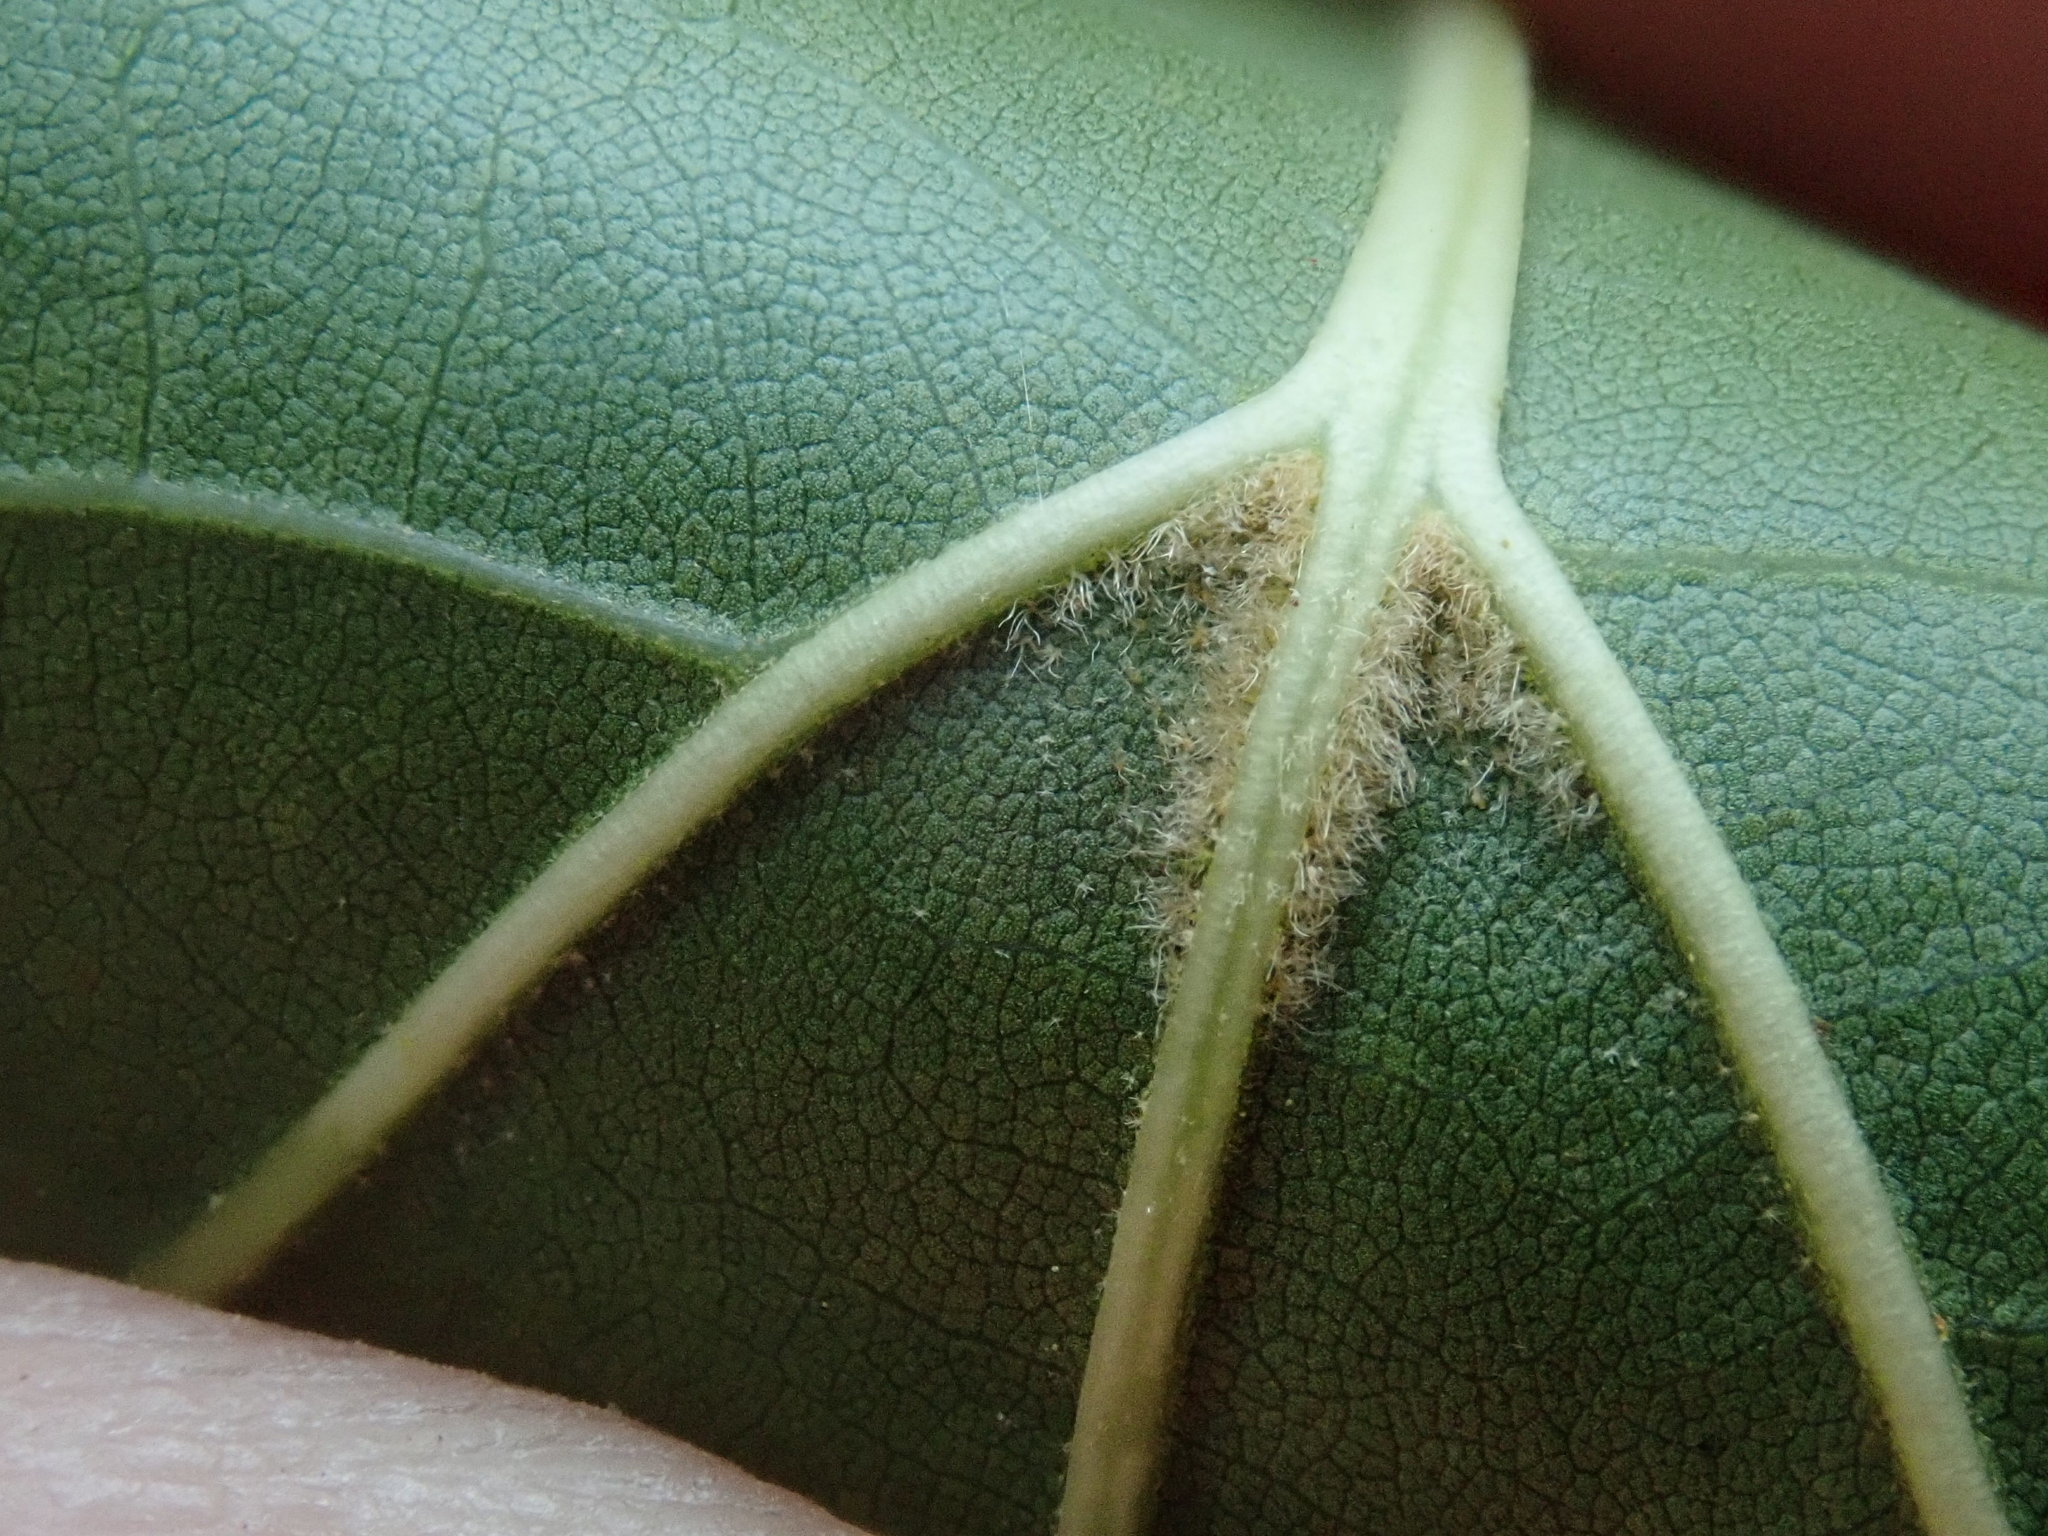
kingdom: Plantae
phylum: Tracheophyta
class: Magnoliopsida
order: Fagales
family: Fagaceae
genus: Quercus
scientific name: Quercus velutina
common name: Black oak
